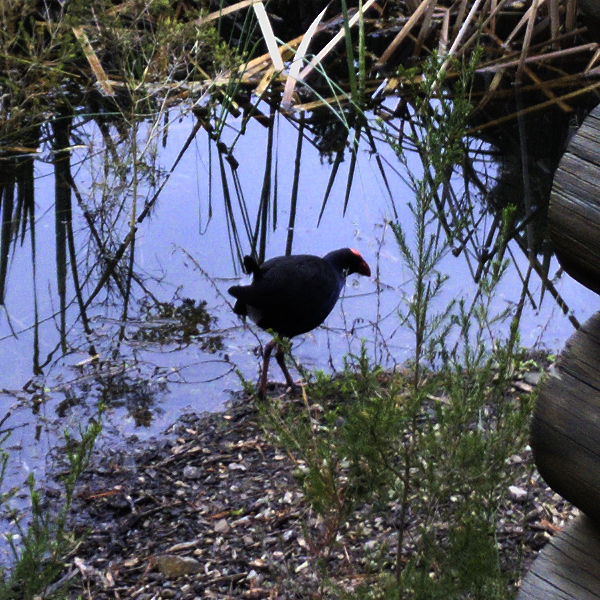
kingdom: Animalia
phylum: Chordata
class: Aves
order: Gruiformes
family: Rallidae
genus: Porphyrio
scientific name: Porphyrio melanotus
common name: Australasian swamphen
